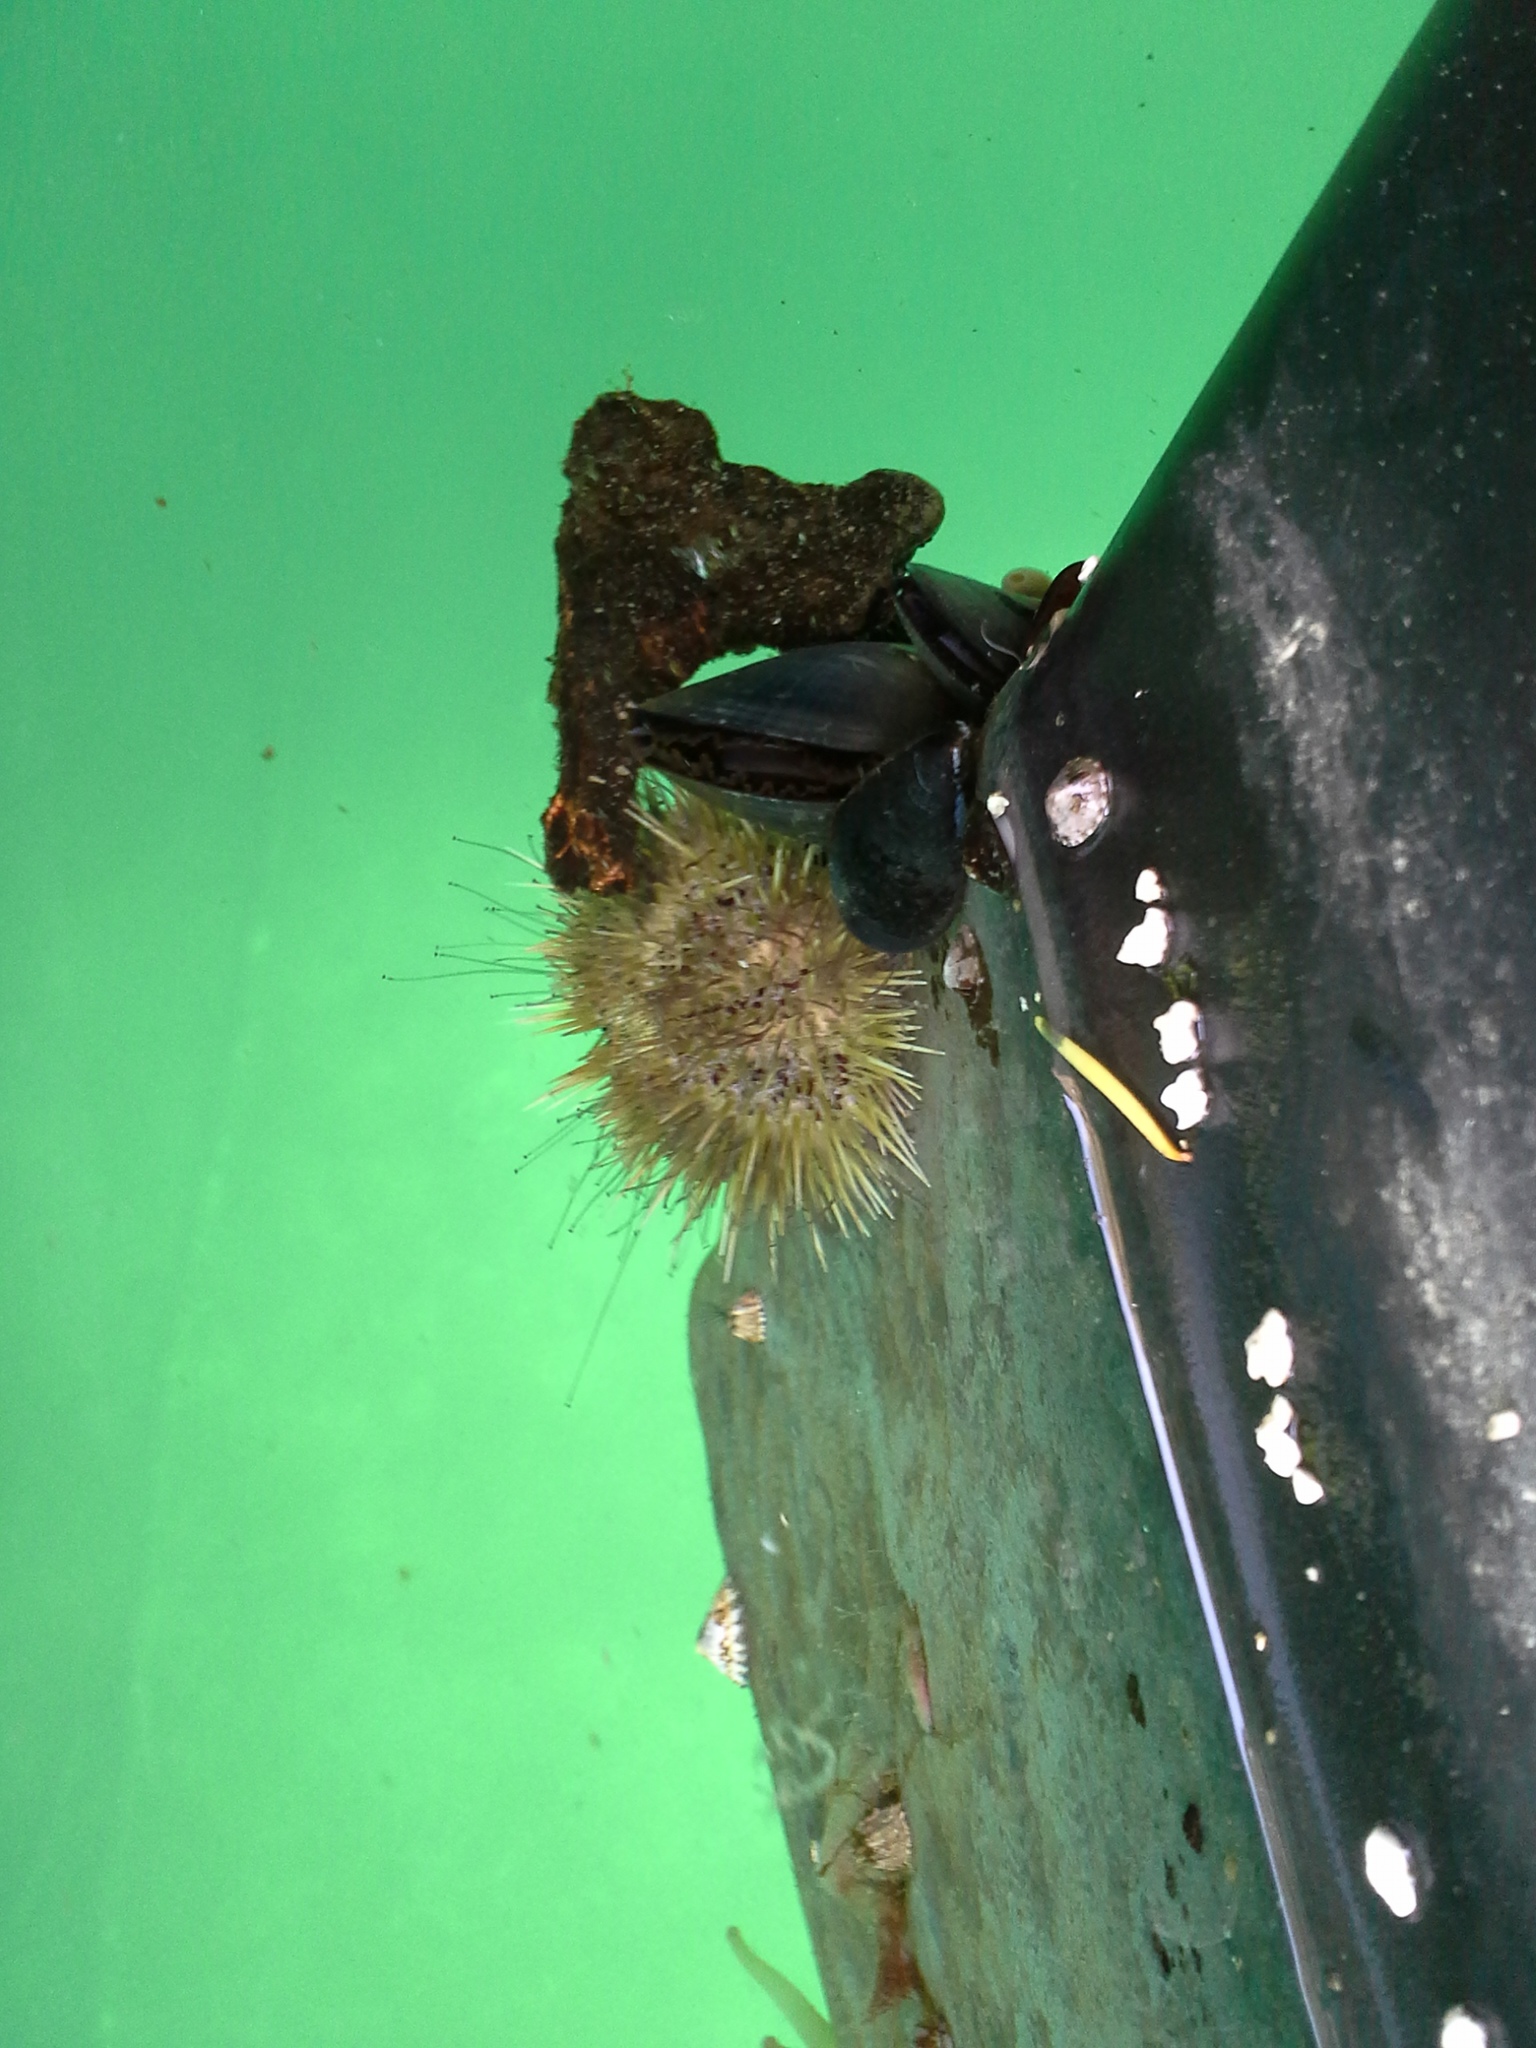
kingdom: Animalia
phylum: Echinodermata
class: Echinoidea
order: Camarodonta
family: Strongylocentrotidae
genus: Strongylocentrotus
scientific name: Strongylocentrotus droebachiensis
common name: Northern sea urchin
